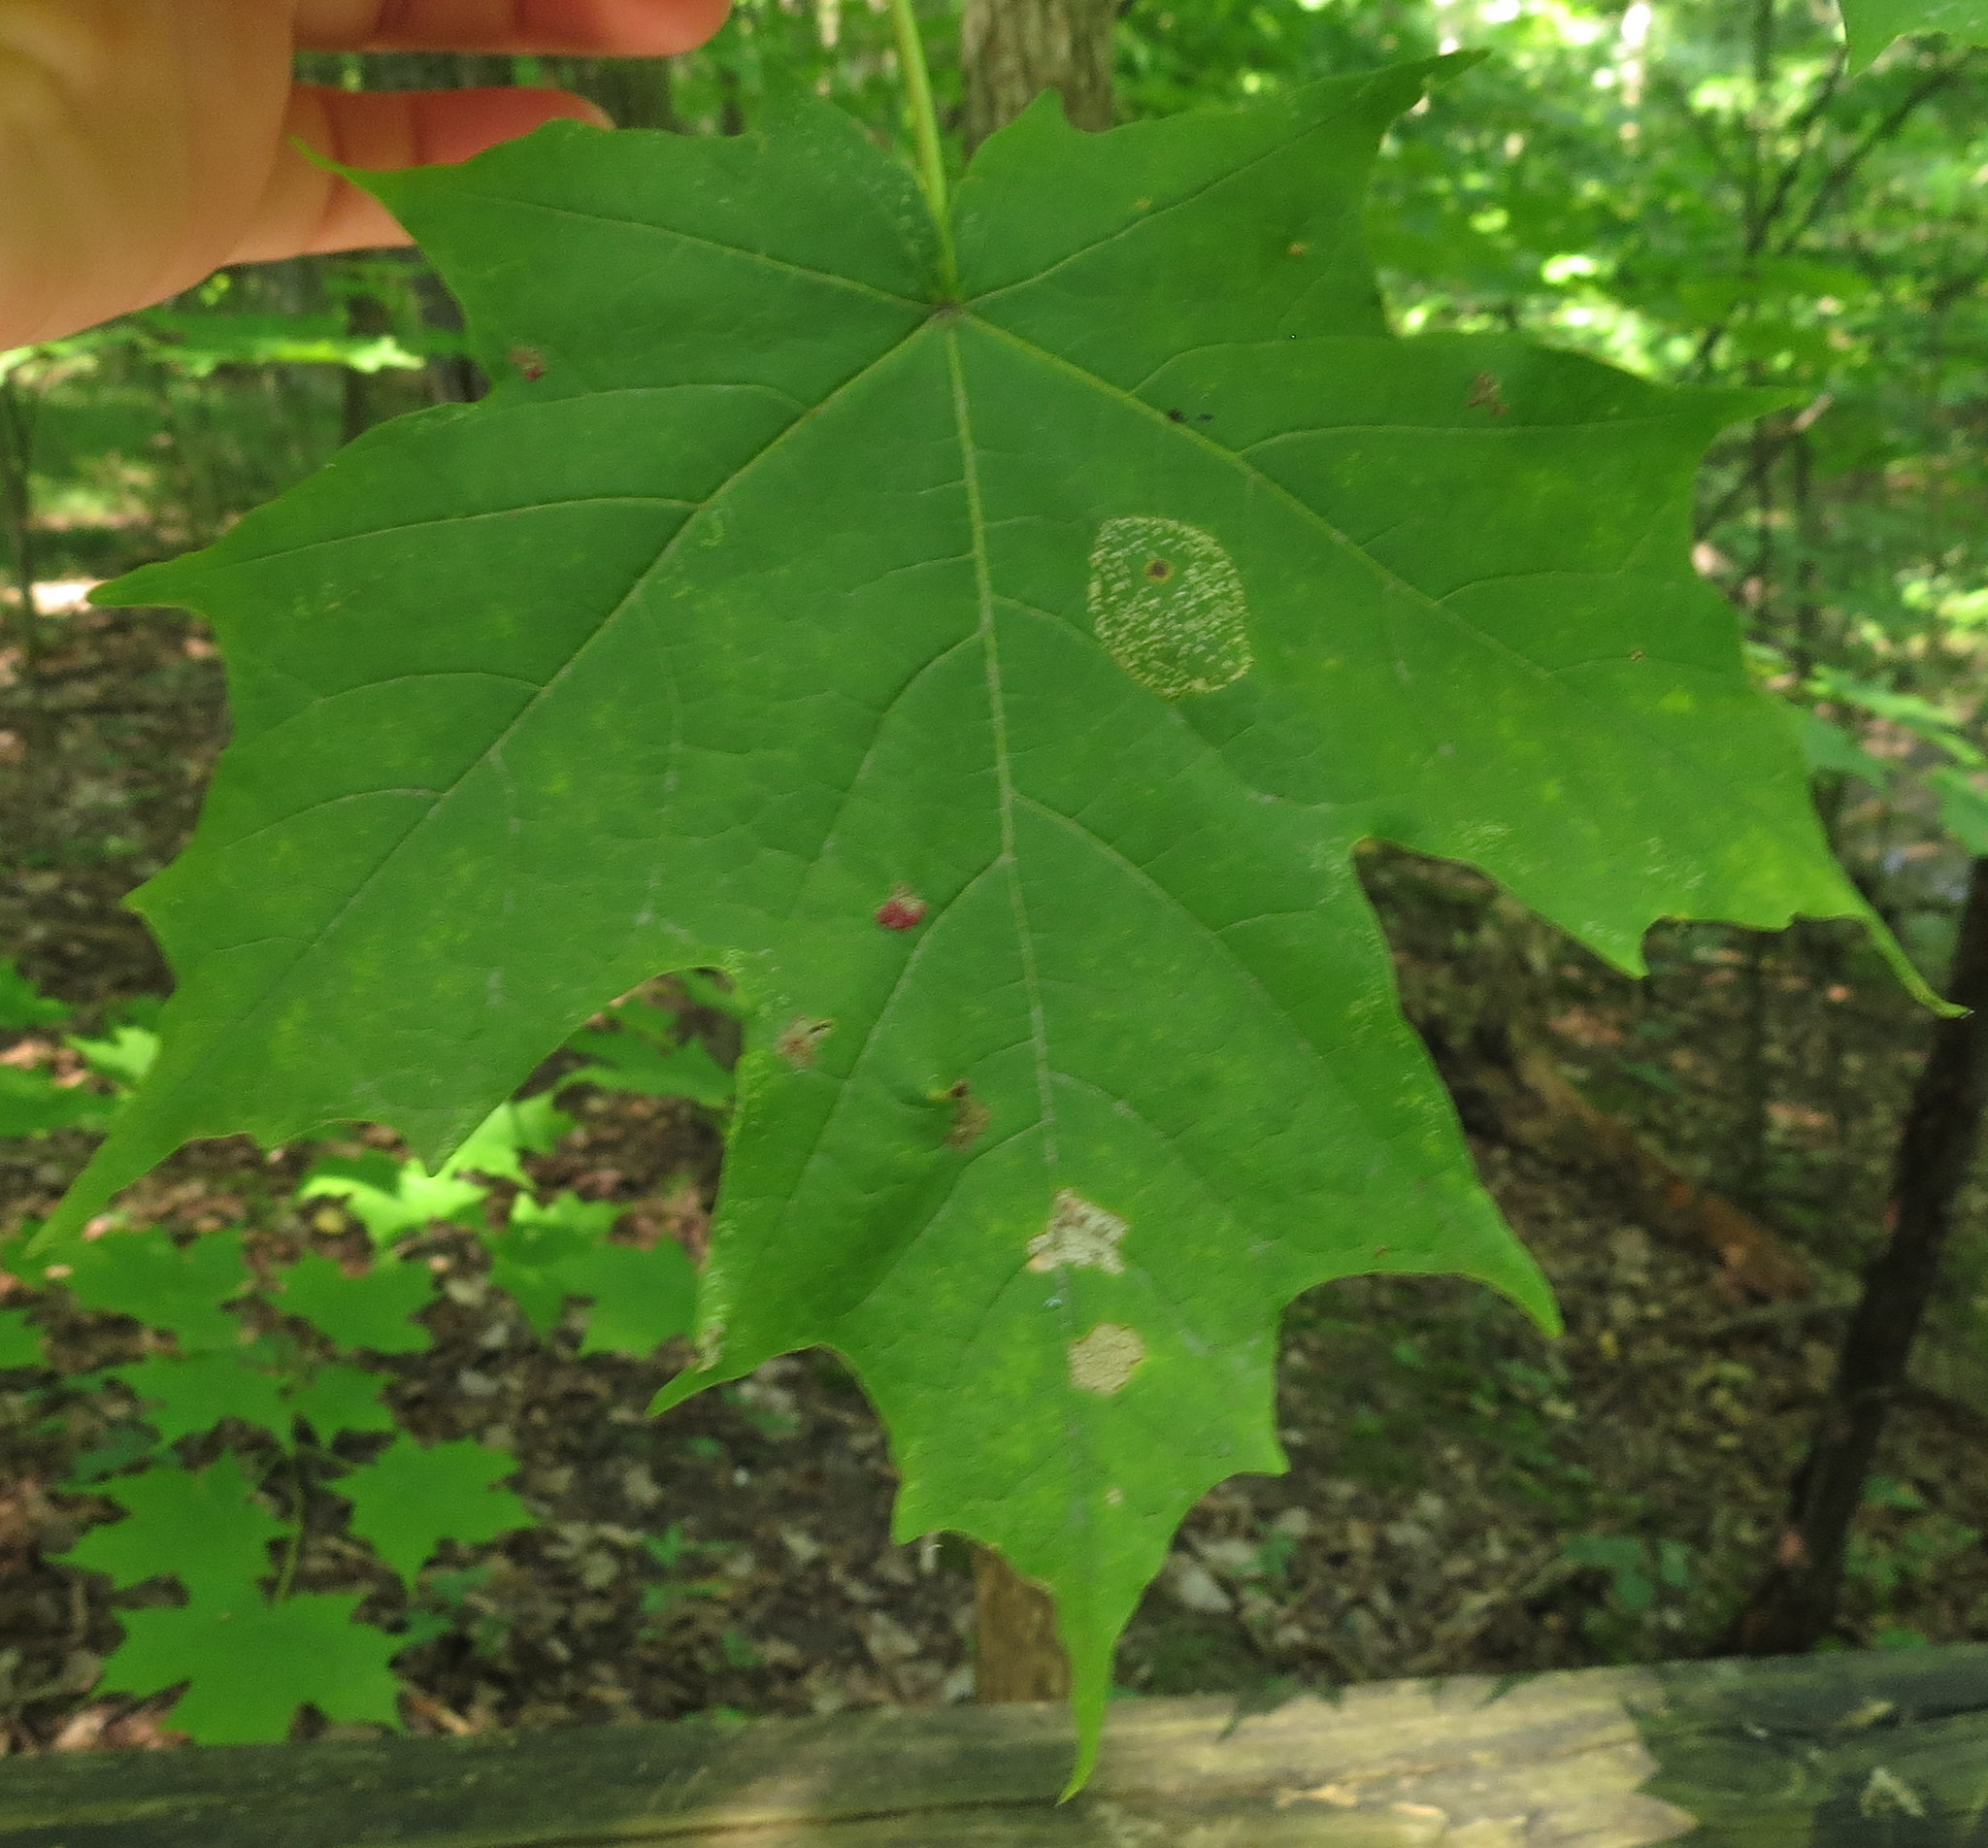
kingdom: Animalia
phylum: Arthropoda
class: Arachnida
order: Trombidiformes
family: Eriophyidae
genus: Vasates
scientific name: Vasates aceriscrumena
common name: Maple spindle gall mite
